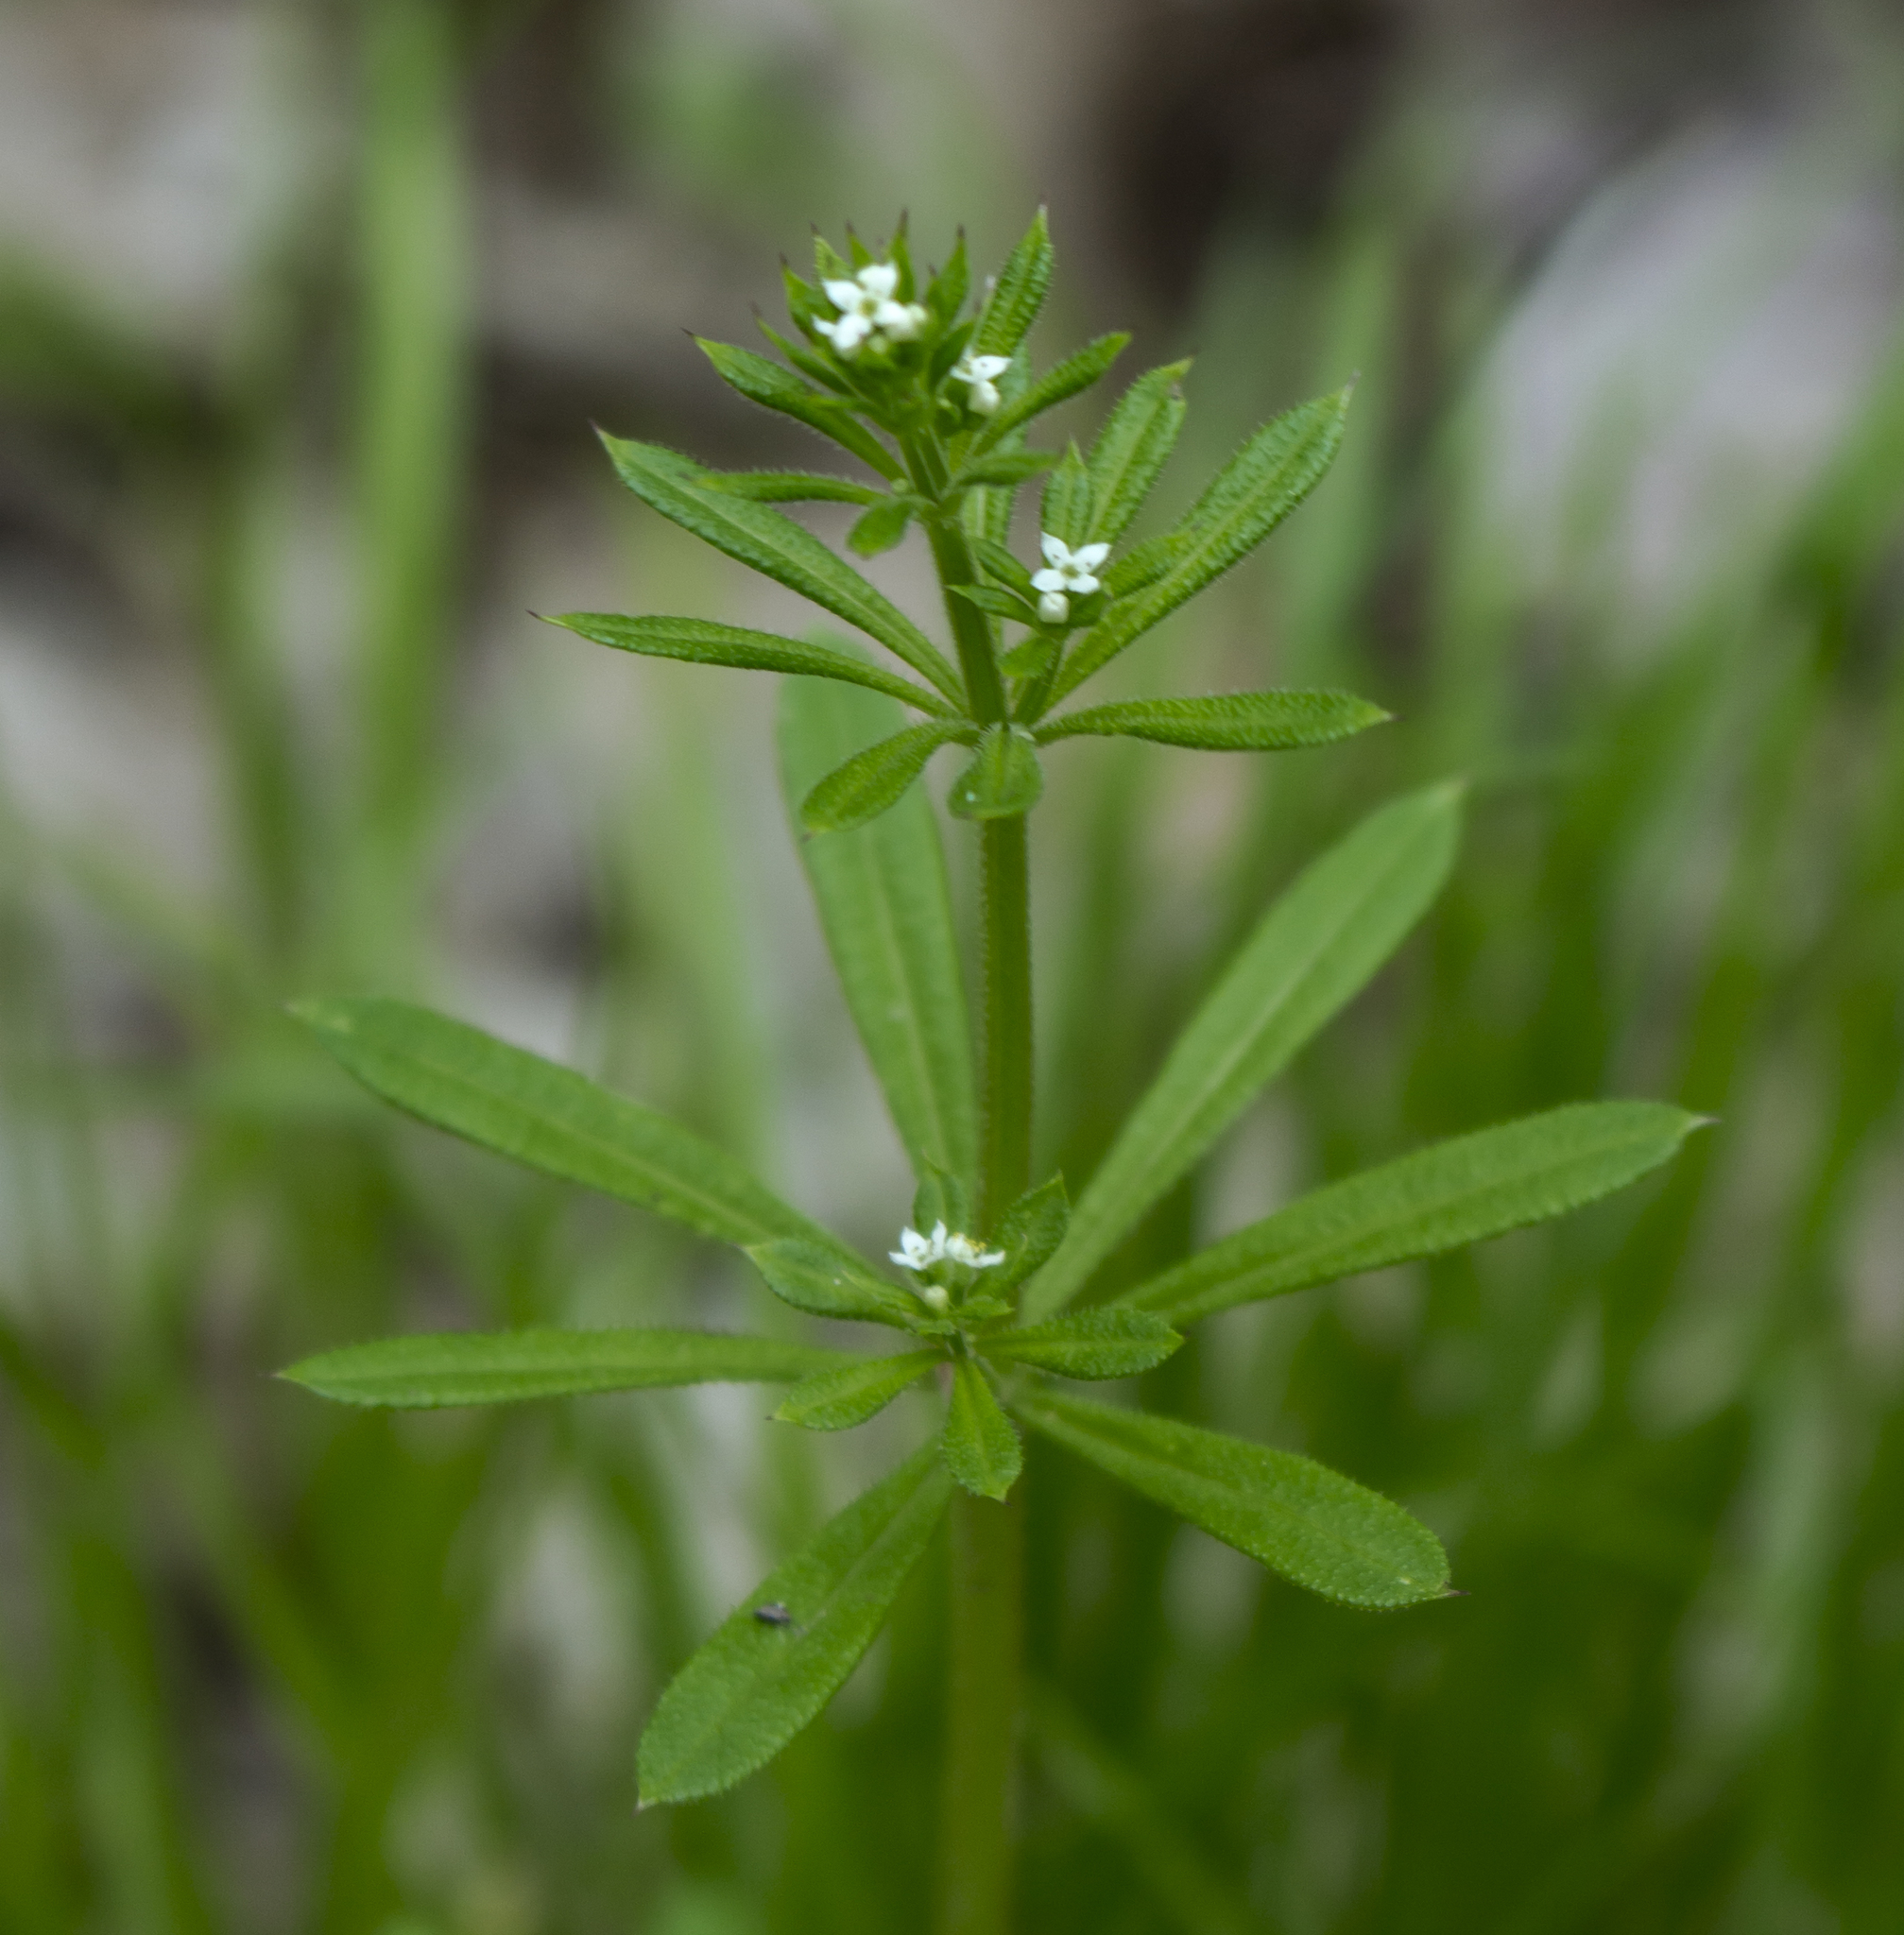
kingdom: Plantae
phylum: Tracheophyta
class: Magnoliopsida
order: Gentianales
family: Rubiaceae
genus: Galium
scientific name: Galium aparine
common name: Cleavers
